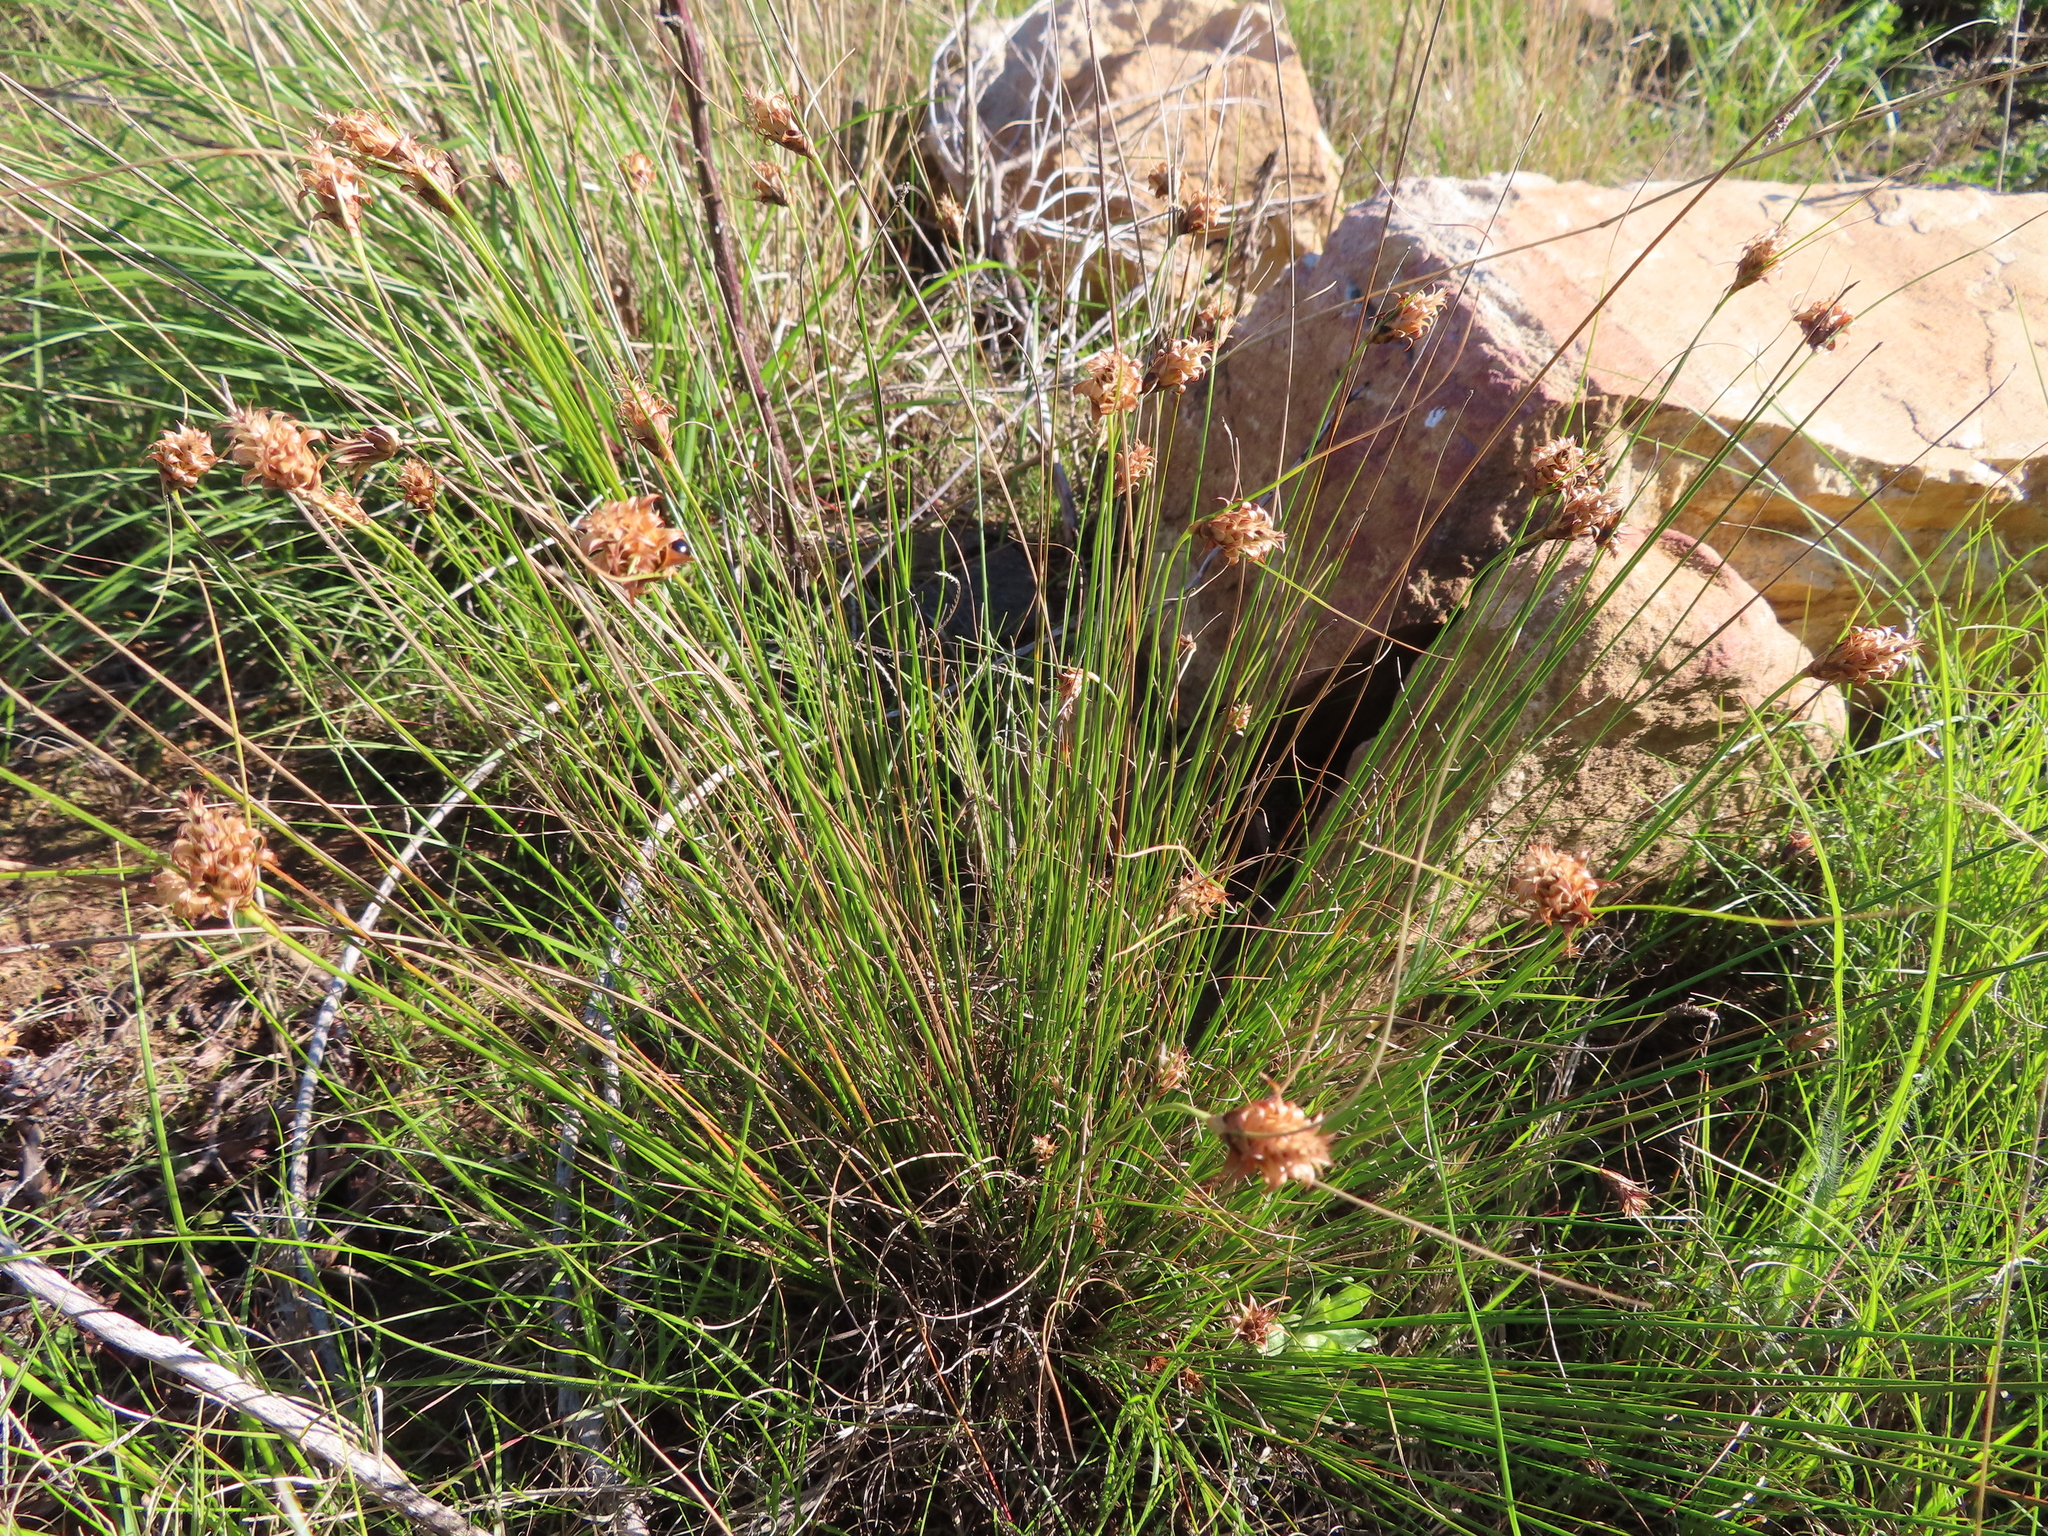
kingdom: Plantae
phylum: Tracheophyta
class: Liliopsida
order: Poales
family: Cyperaceae
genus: Ficinia
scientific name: Ficinia nigrescens
